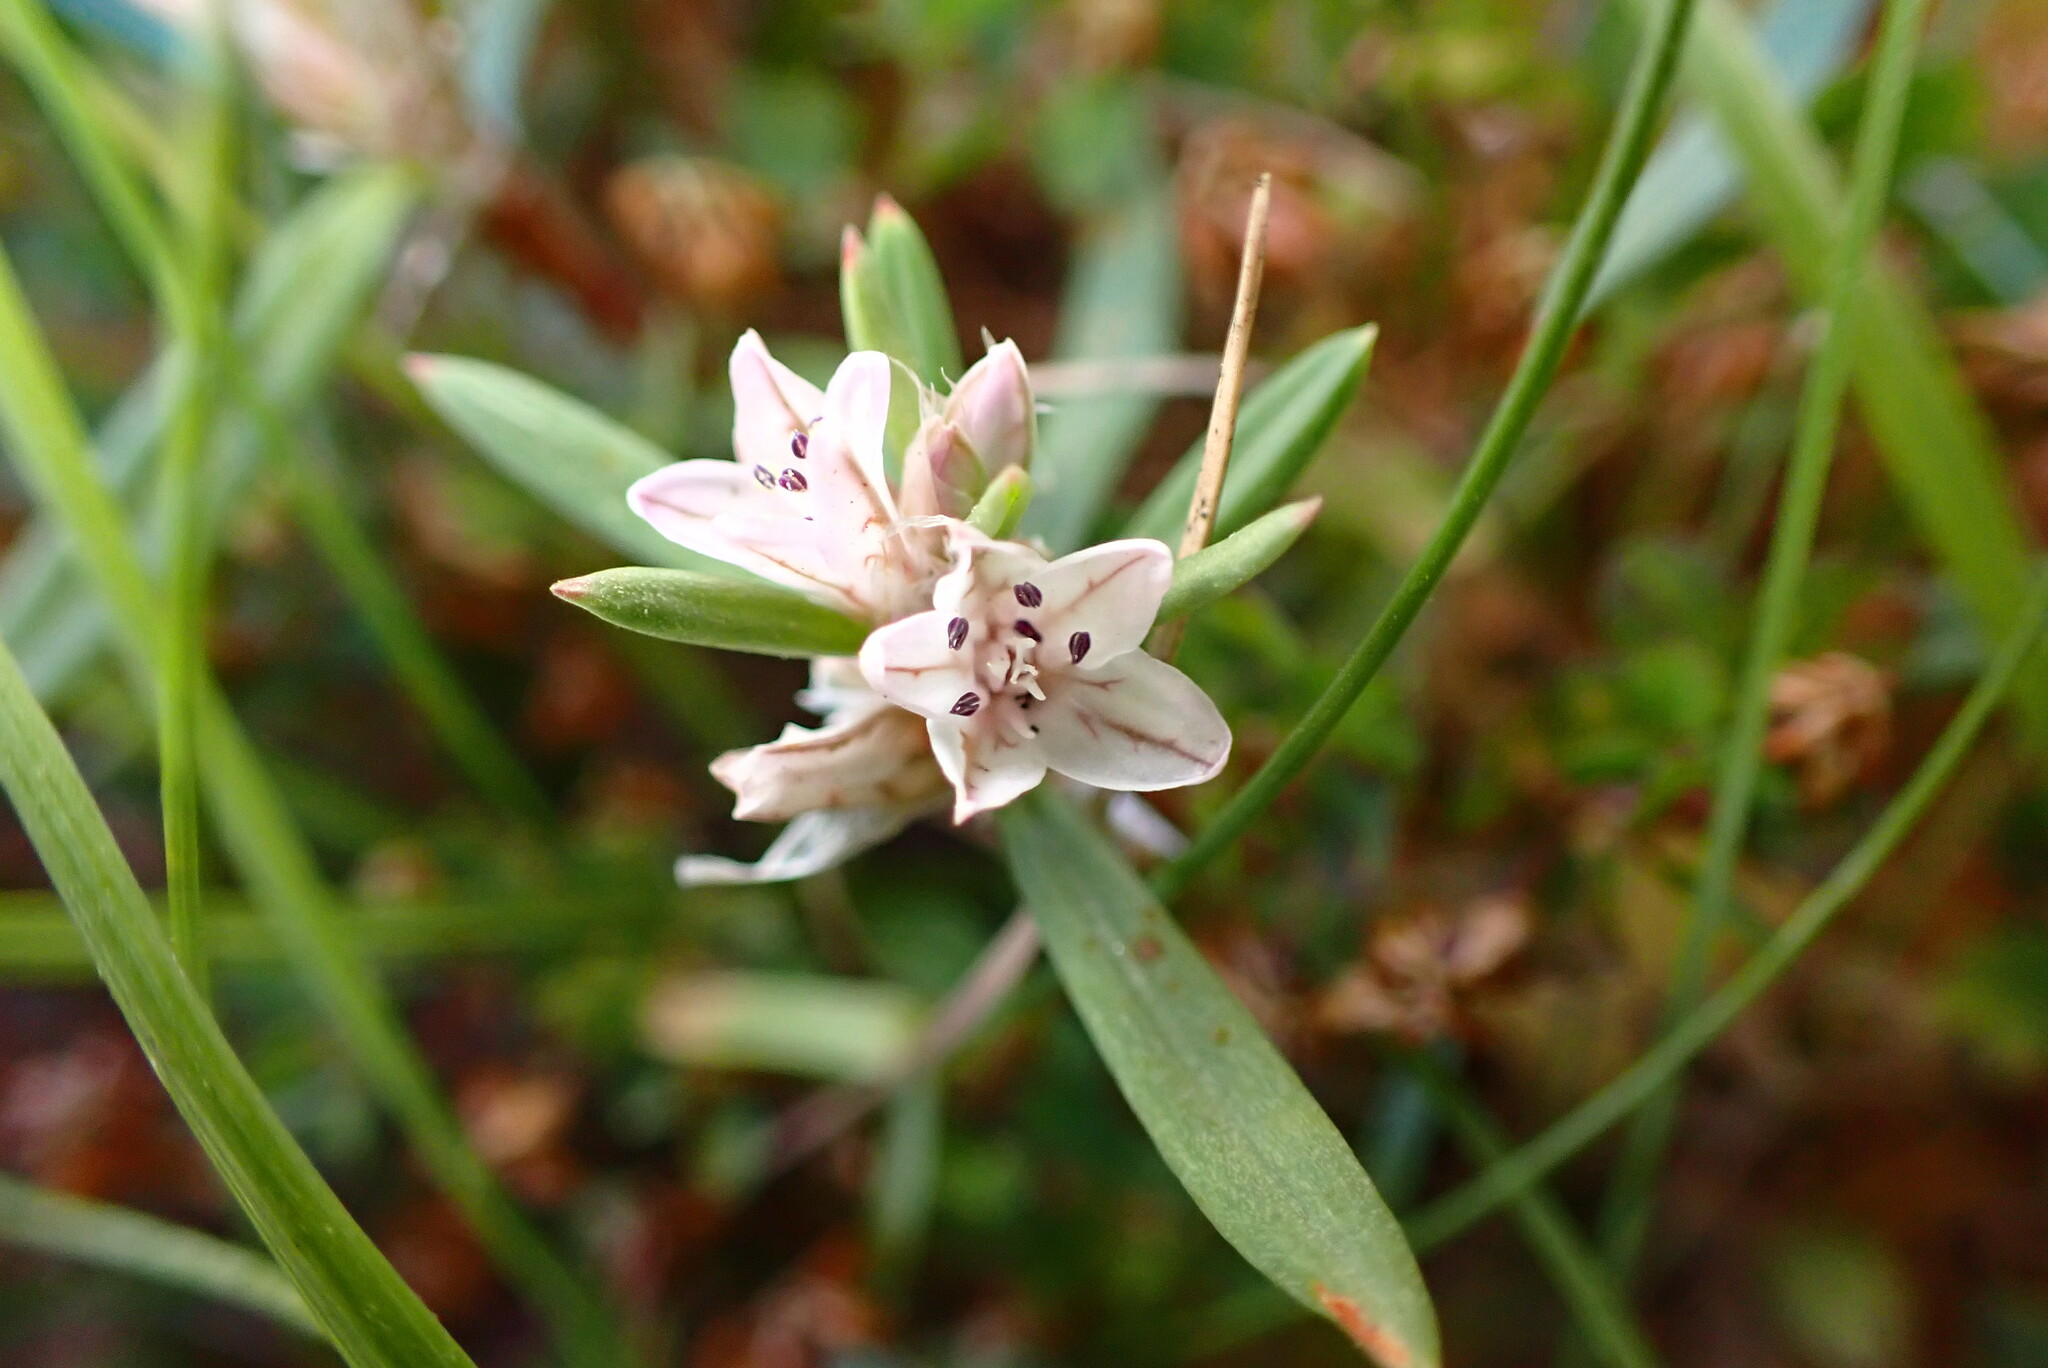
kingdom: Plantae
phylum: Tracheophyta
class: Magnoliopsida
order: Caryophyllales
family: Polygonaceae
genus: Polygonum
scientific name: Polygonum paronychia
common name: Dune knotweed
